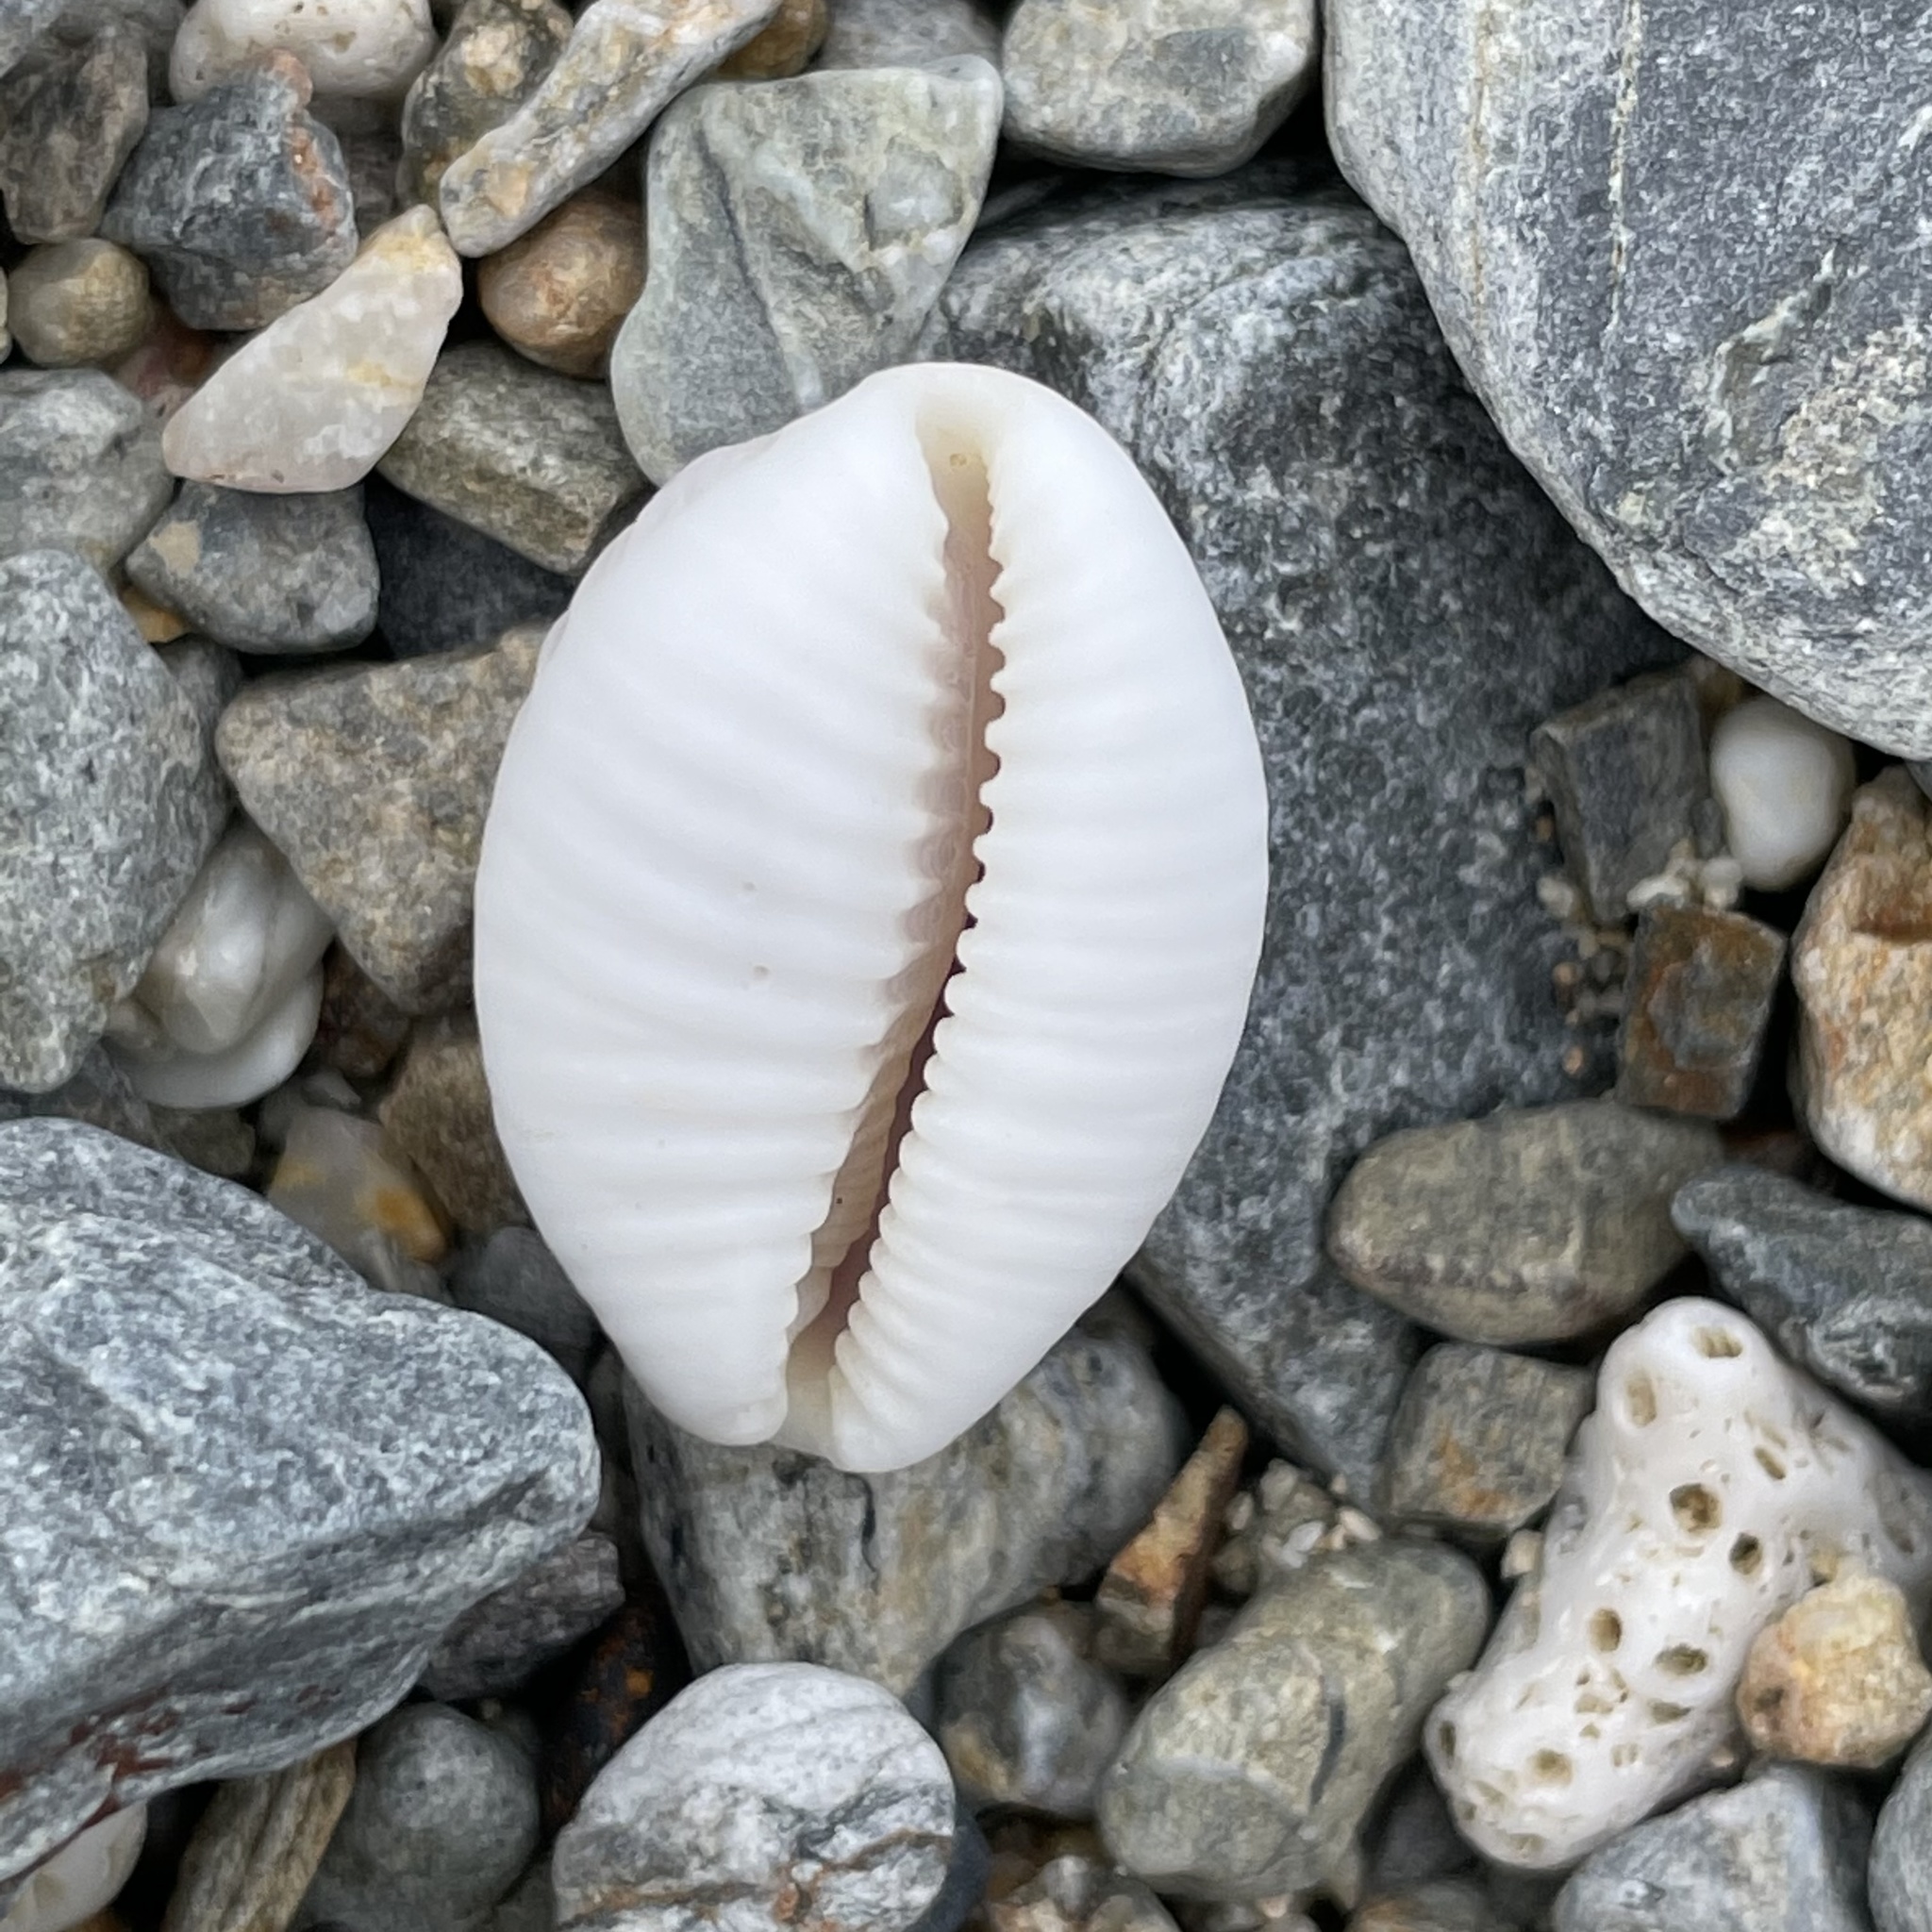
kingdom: Animalia
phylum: Mollusca
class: Gastropoda
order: Littorinimorpha
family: Cypraeidae
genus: Nucleolaria
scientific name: Nucleolaria nucleus
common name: Kernel cowry
